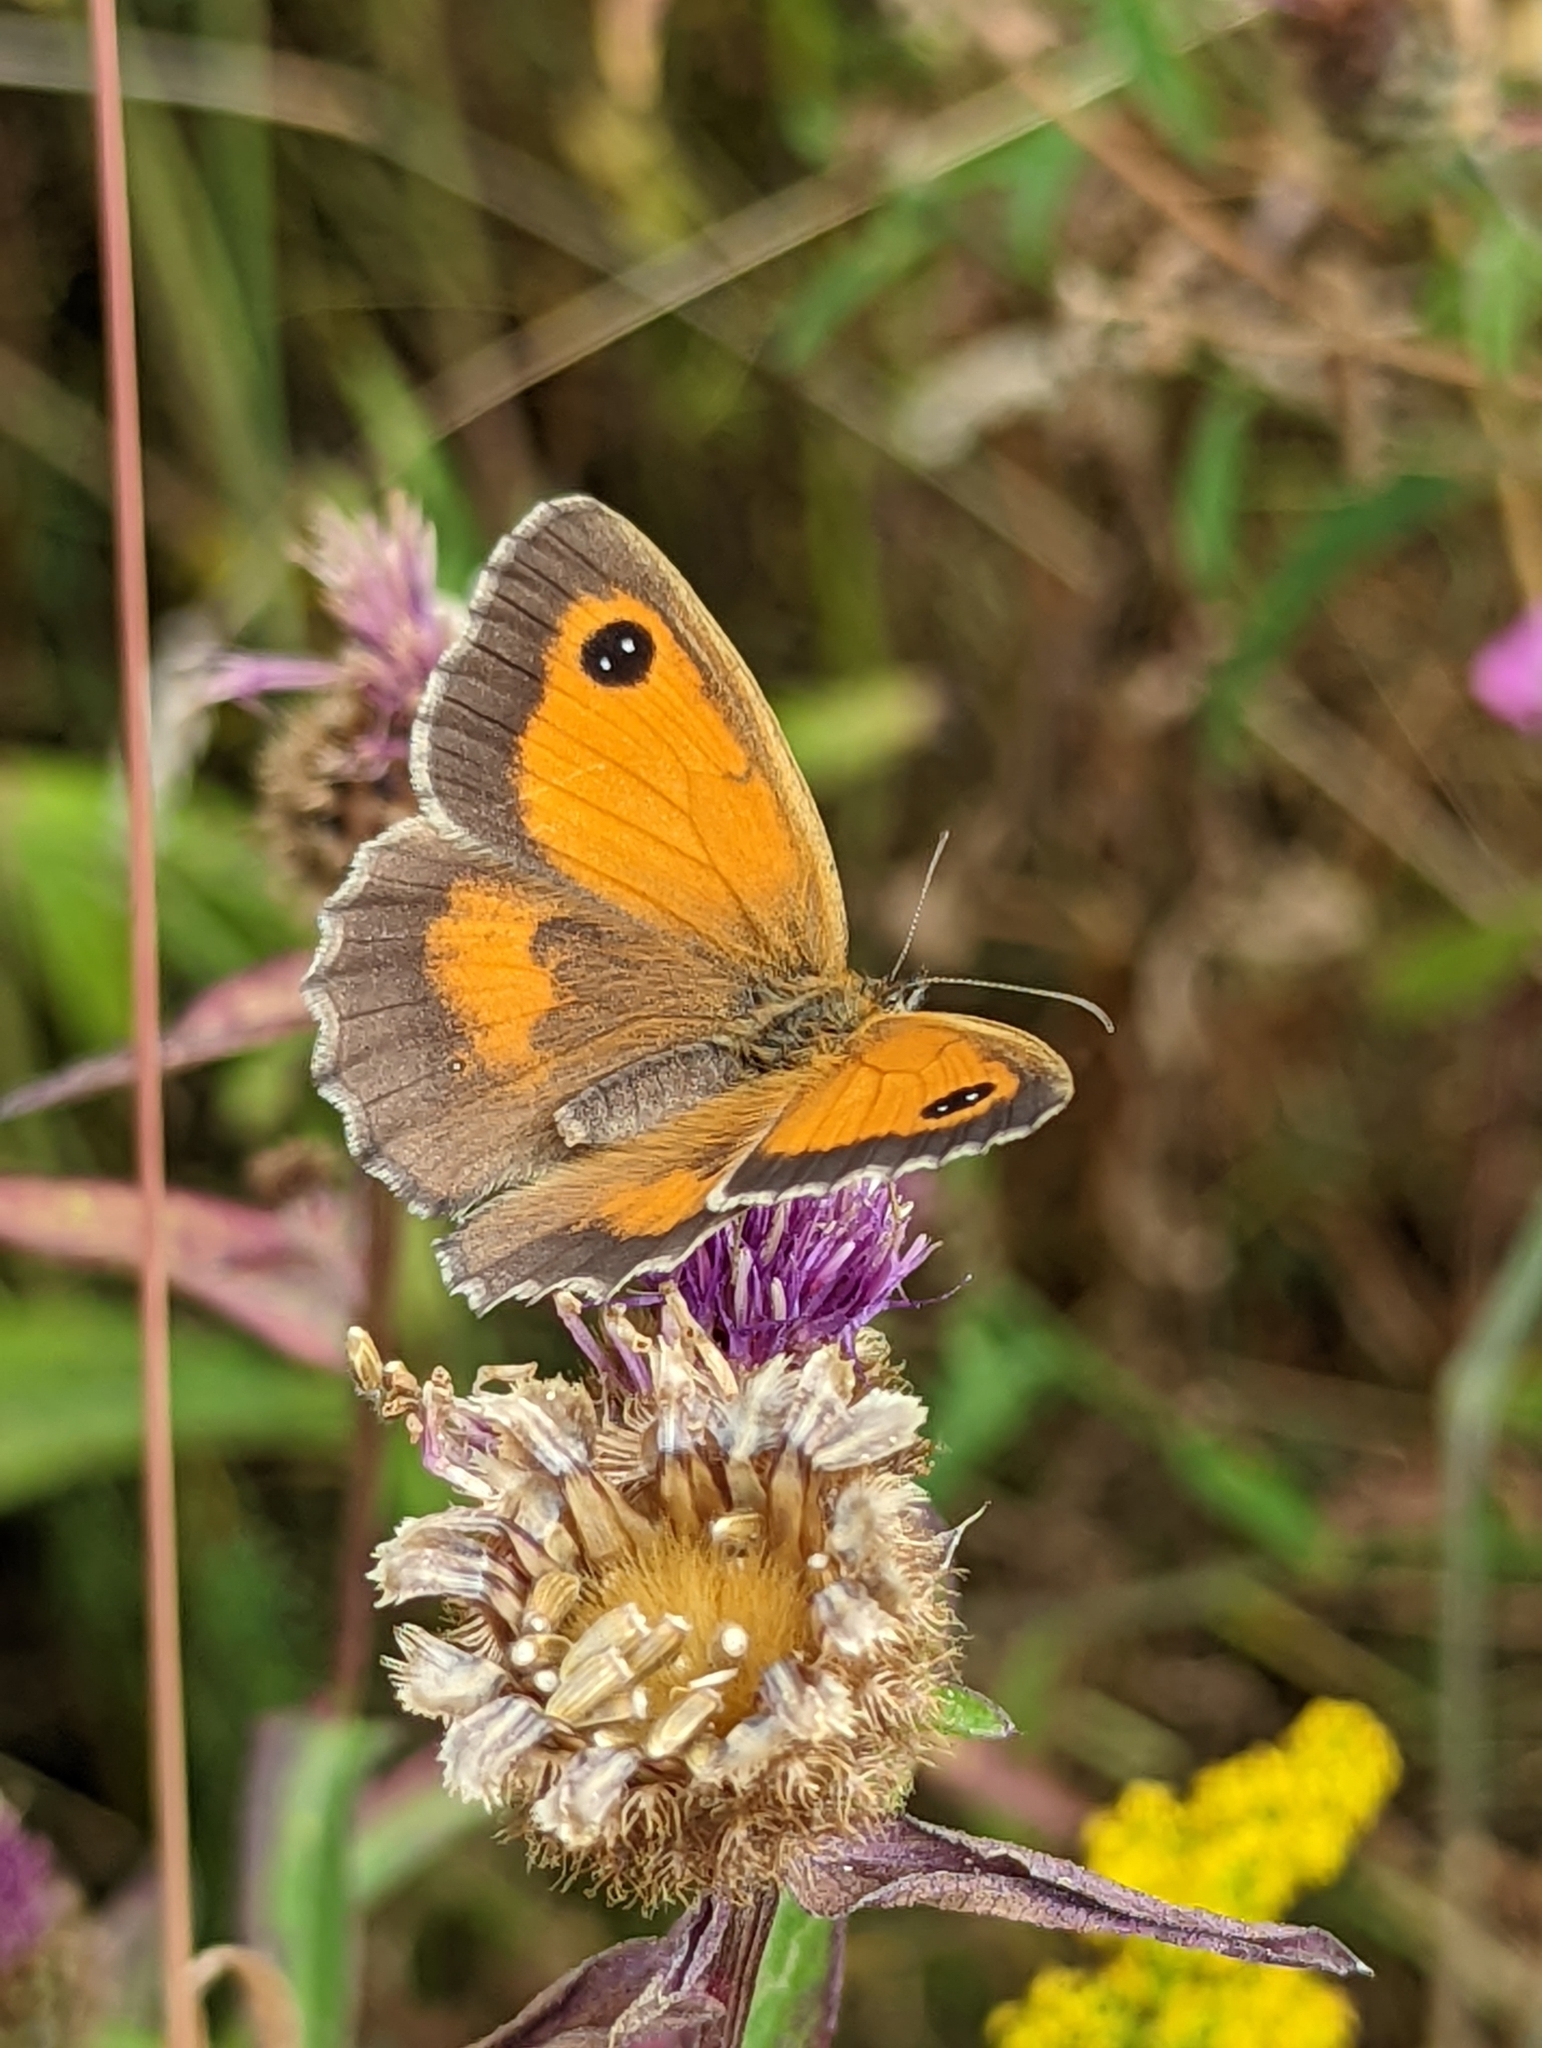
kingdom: Animalia
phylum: Arthropoda
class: Insecta
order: Lepidoptera
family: Nymphalidae
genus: Pyronia
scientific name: Pyronia tithonus
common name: Gatekeeper
